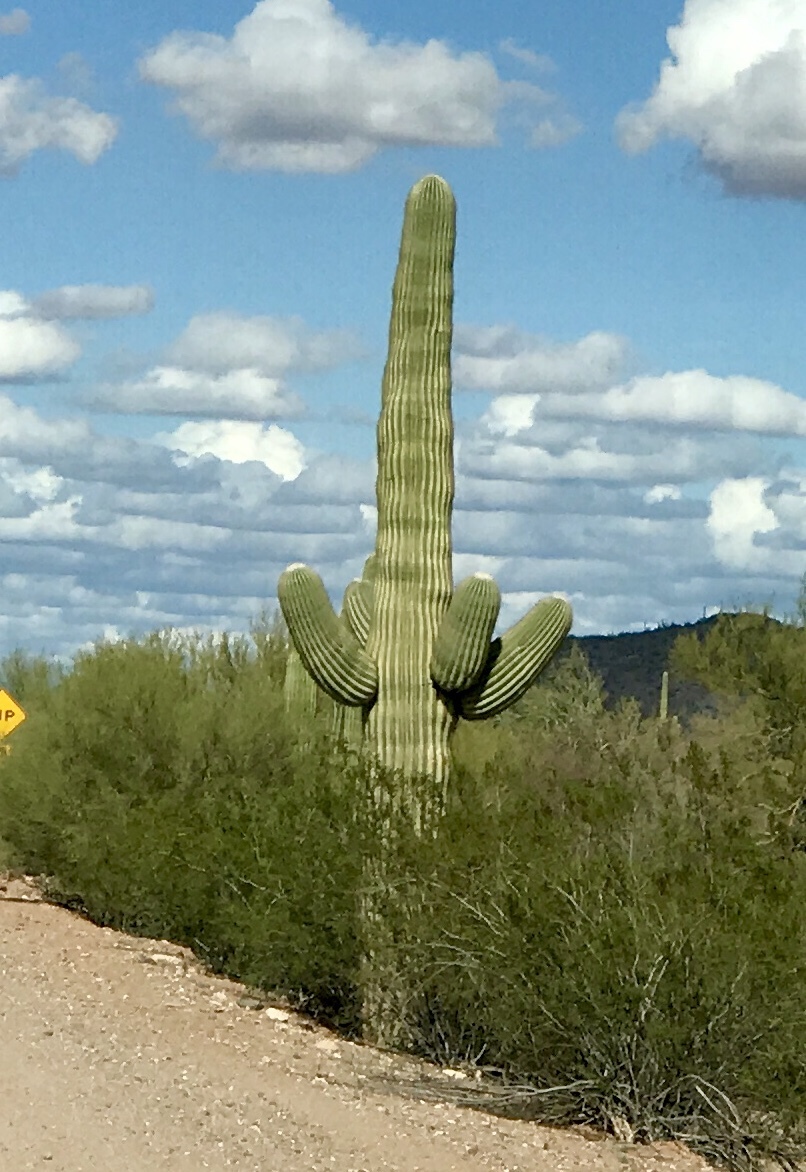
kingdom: Plantae
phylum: Tracheophyta
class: Magnoliopsida
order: Caryophyllales
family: Cactaceae
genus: Carnegiea
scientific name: Carnegiea gigantea
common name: Saguaro
